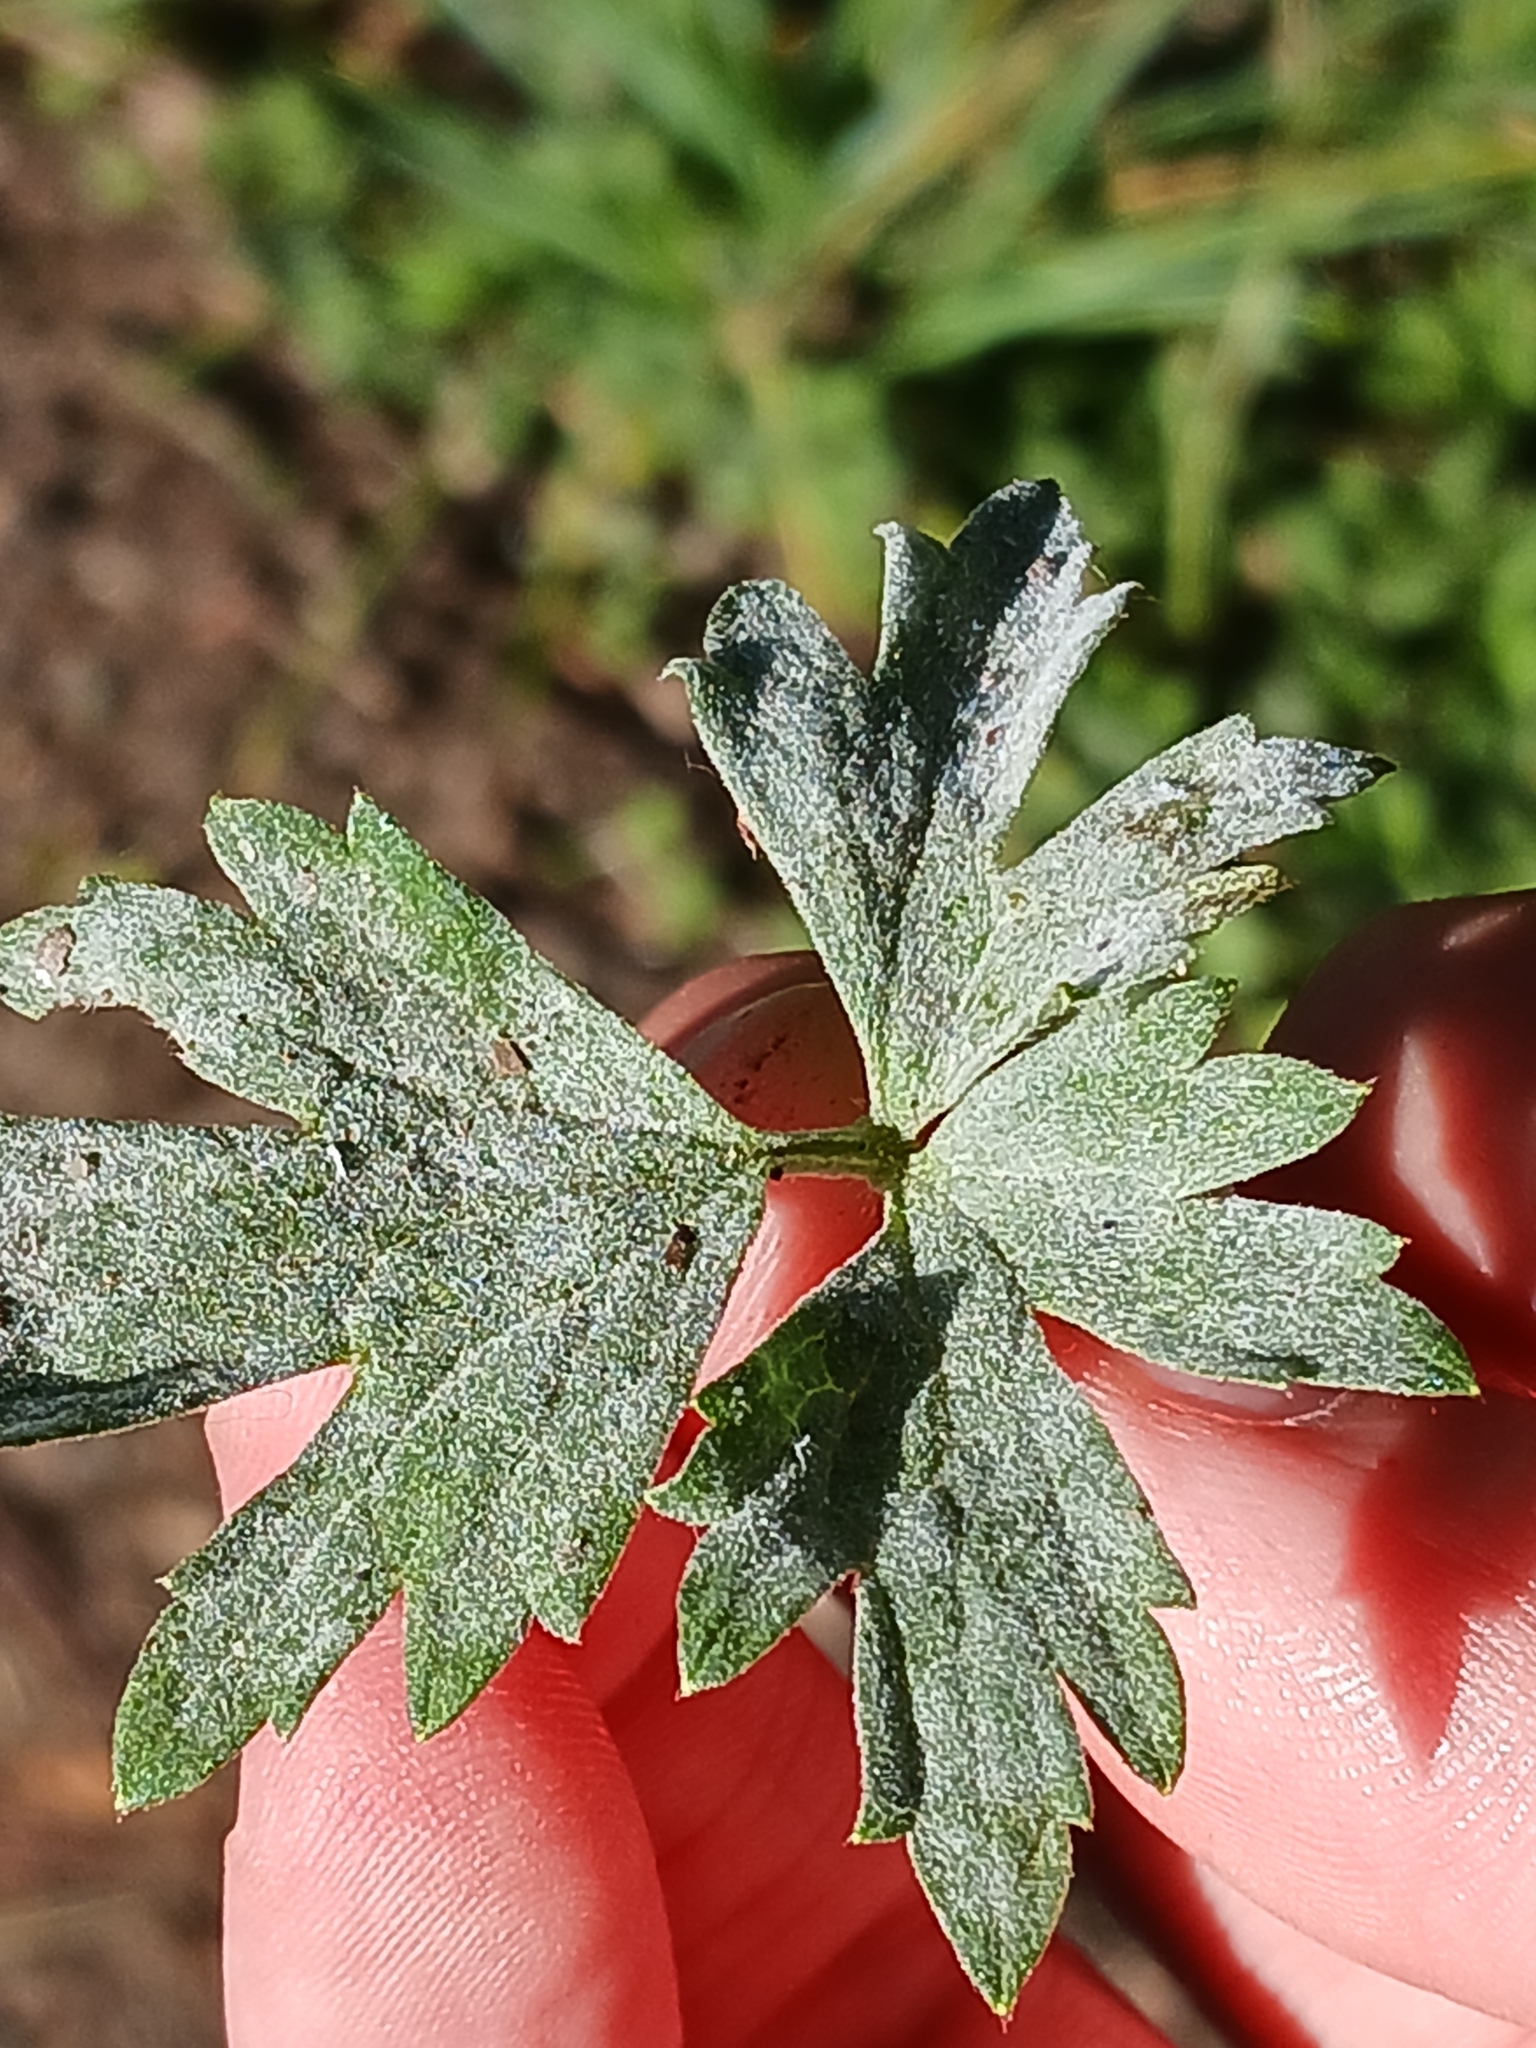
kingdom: Fungi
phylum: Ascomycota
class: Leotiomycetes
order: Helotiales
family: Erysiphaceae
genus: Erysiphe
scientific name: Erysiphe aquilegiae
